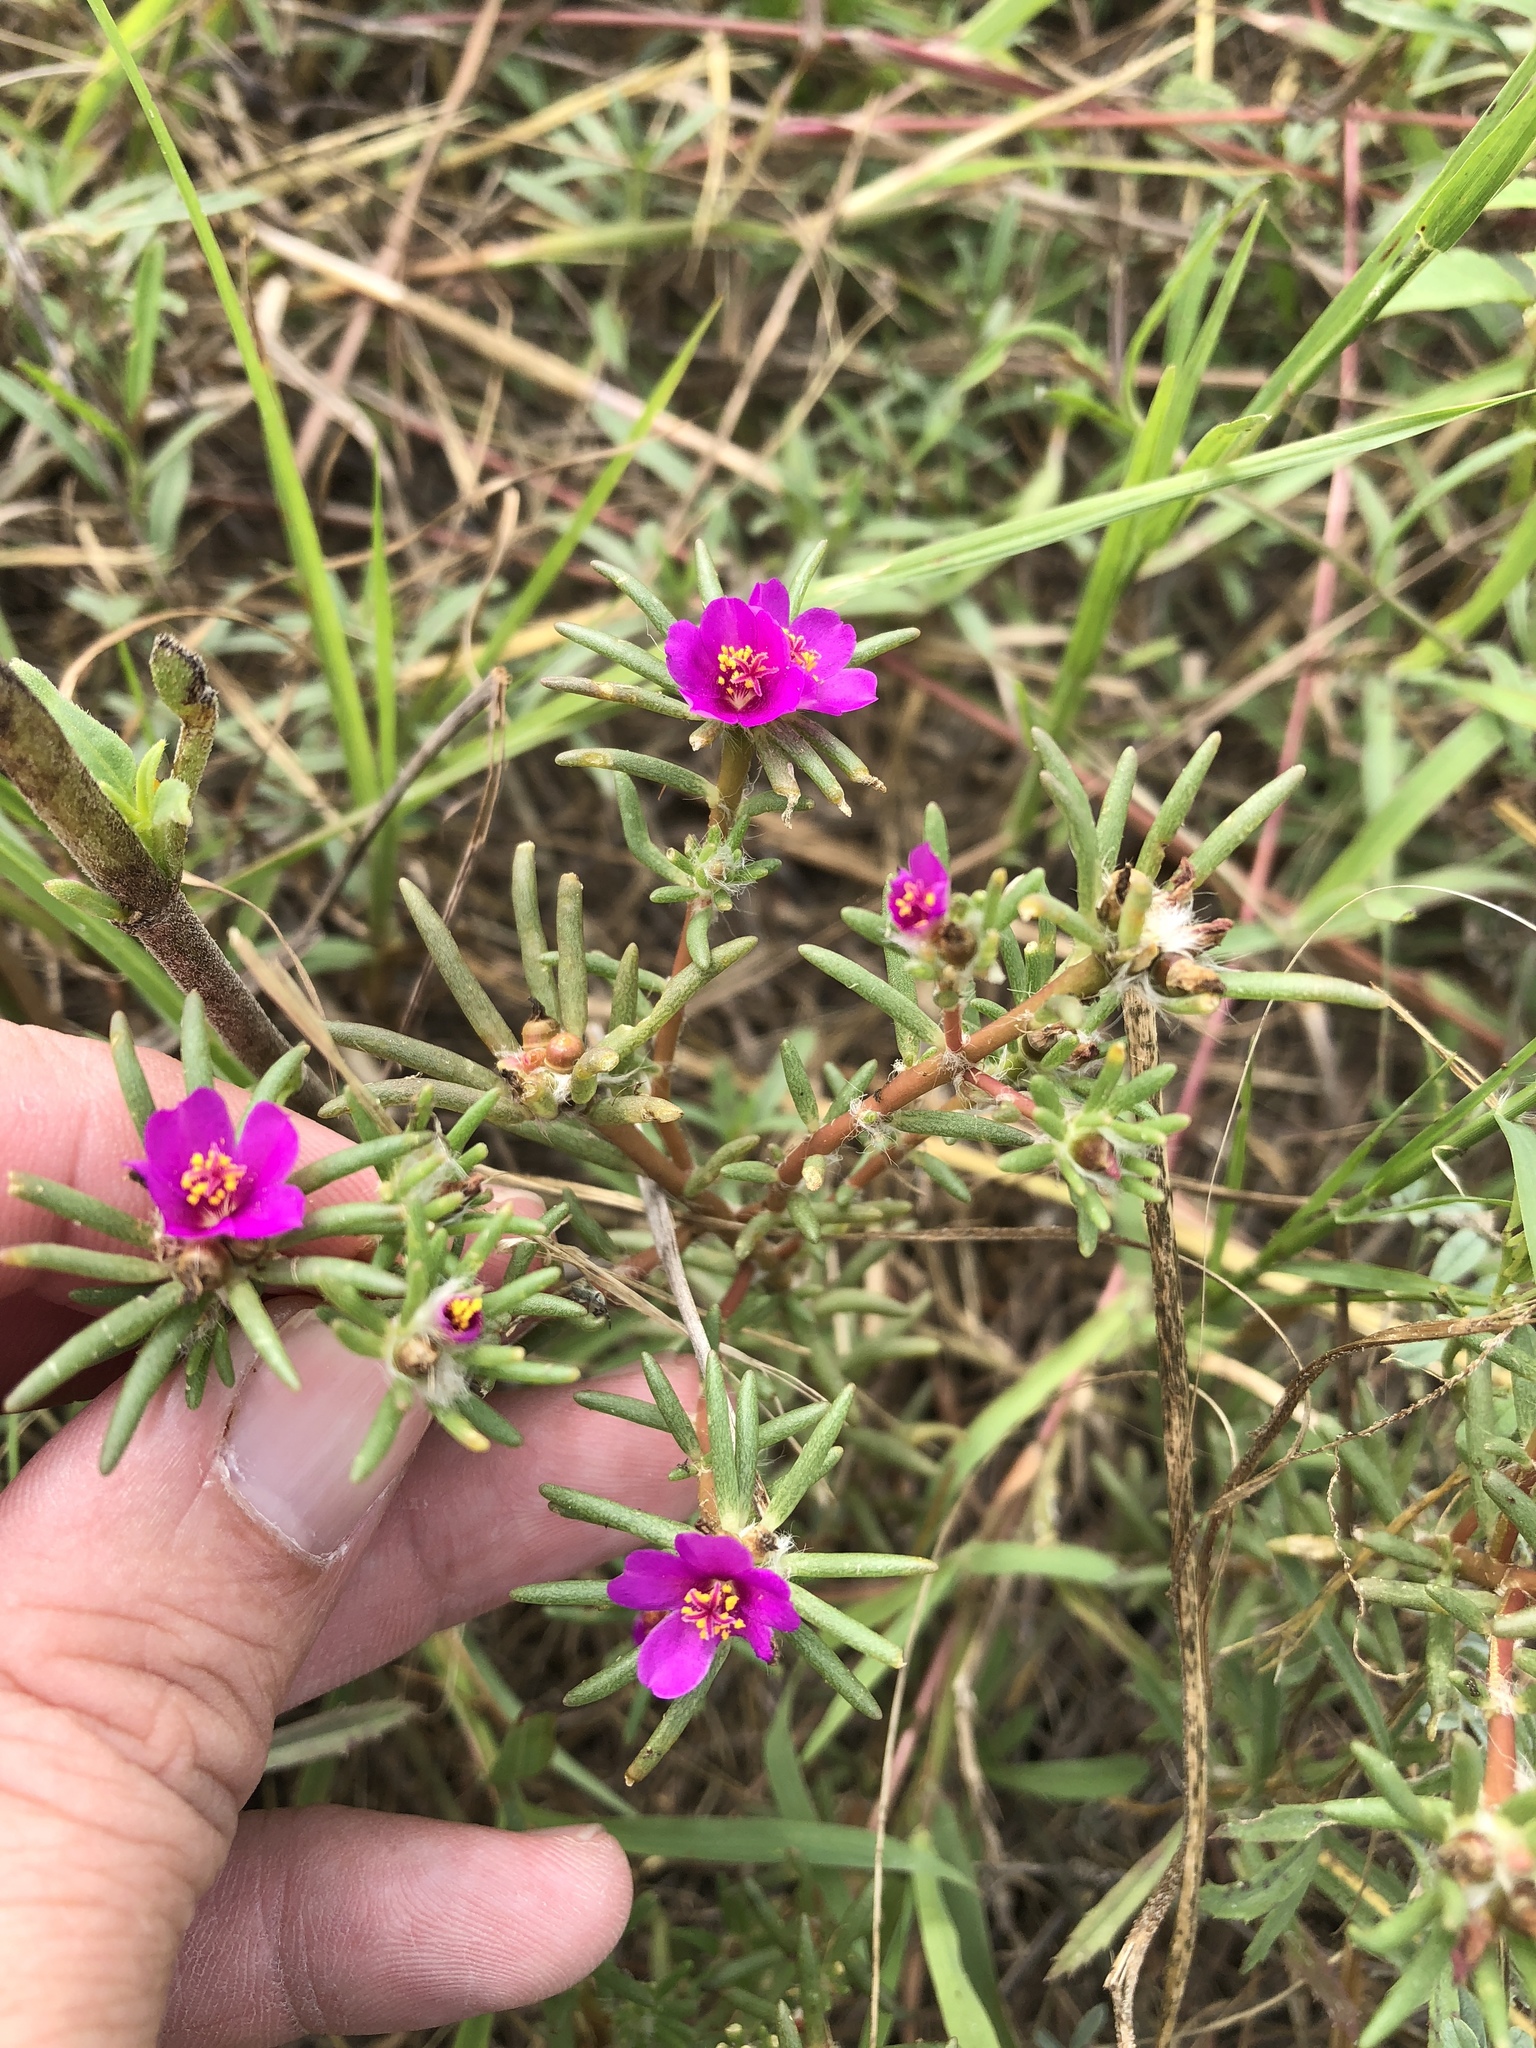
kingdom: Plantae
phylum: Tracheophyta
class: Magnoliopsida
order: Caryophyllales
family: Portulacaceae
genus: Portulaca
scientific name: Portulaca pilosa
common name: Kiss me quick
